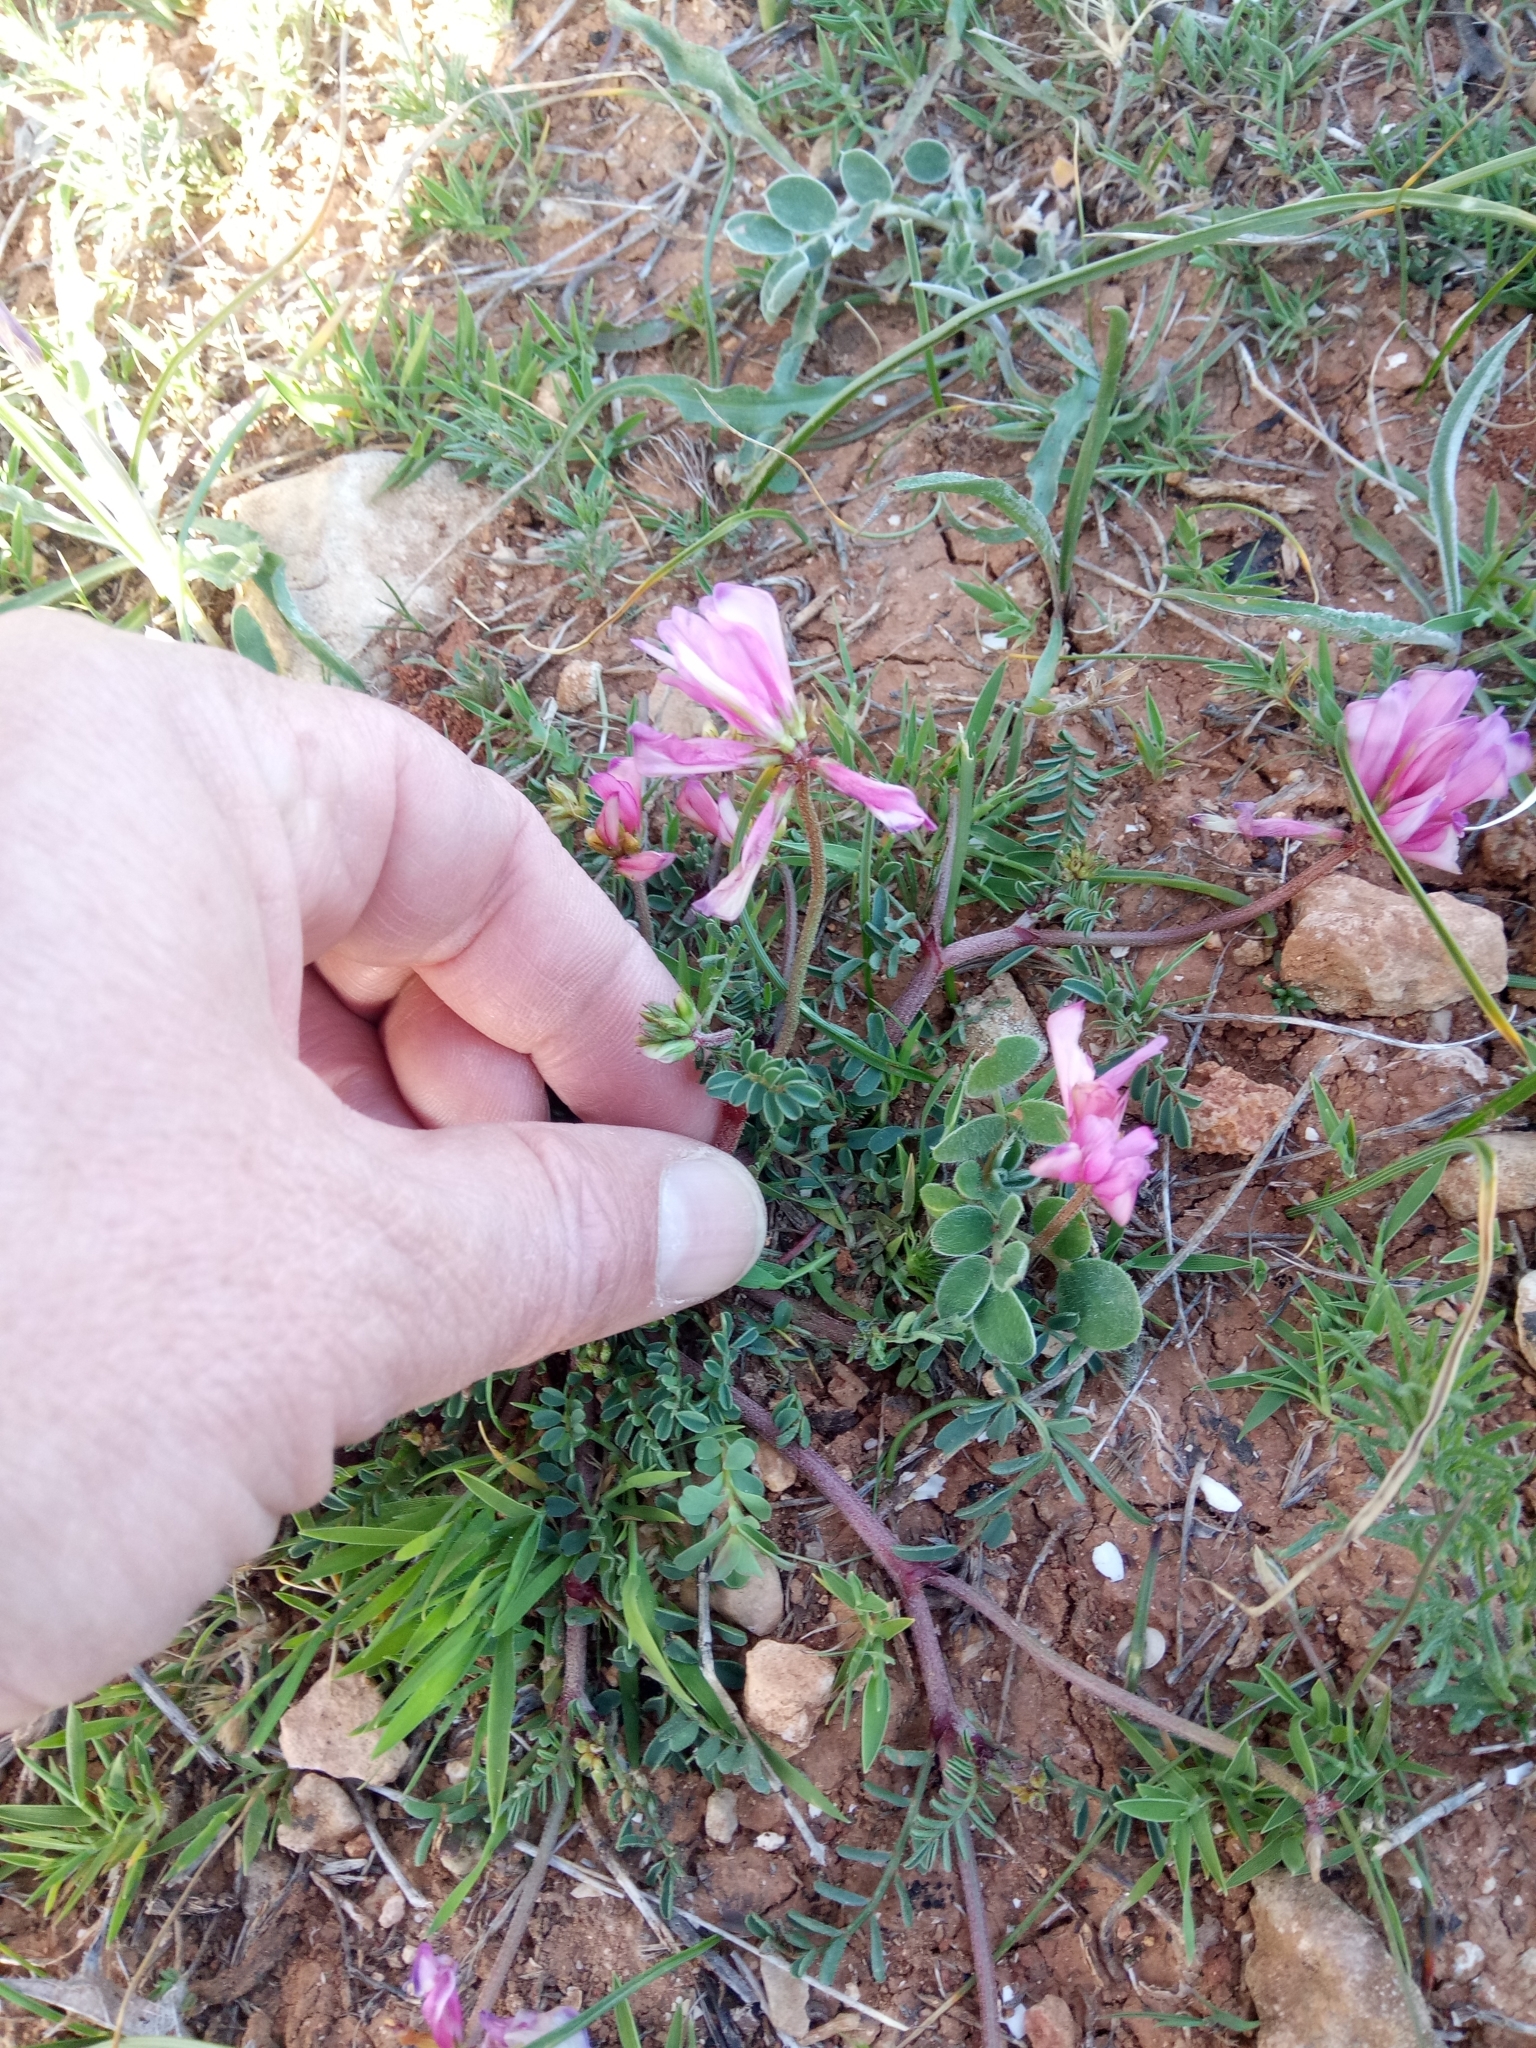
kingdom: Plantae
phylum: Tracheophyta
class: Magnoliopsida
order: Fabales
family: Fabaceae
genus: Sulla
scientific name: Sulla glomerata
